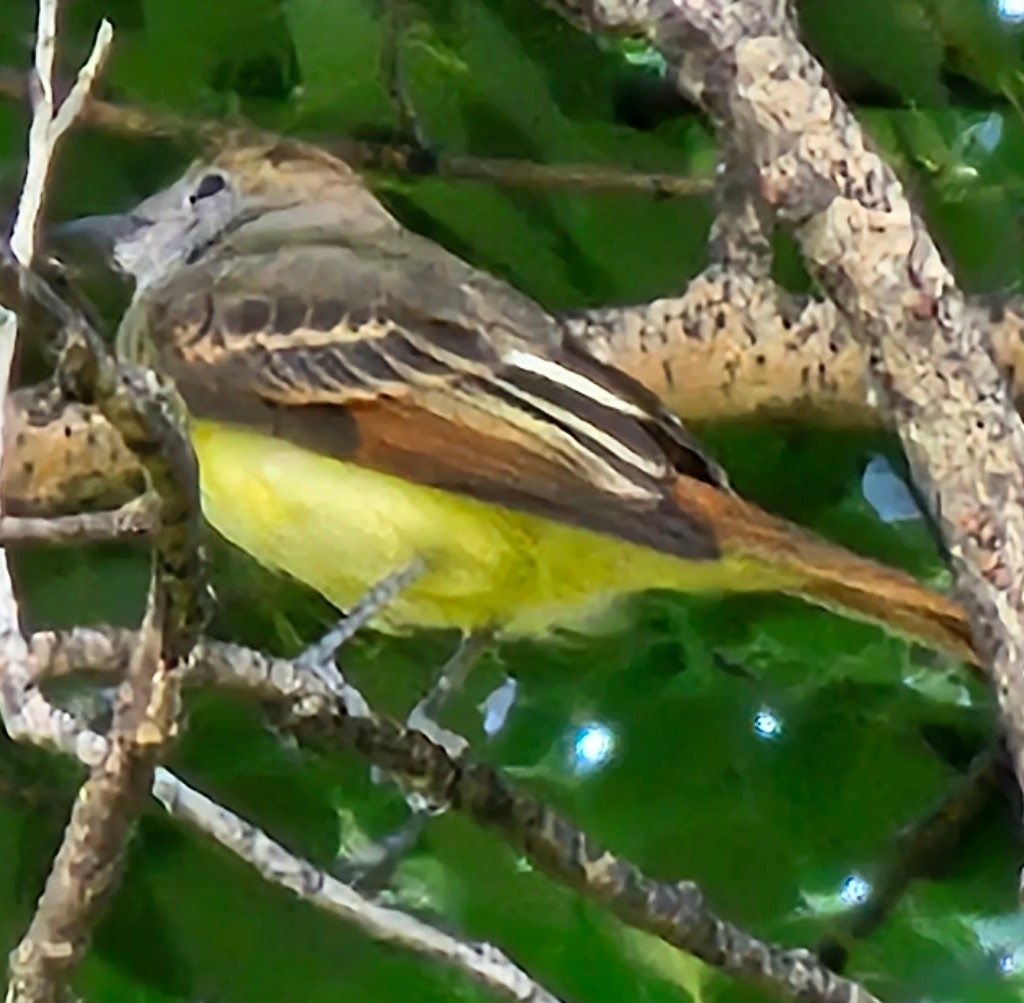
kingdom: Animalia
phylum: Chordata
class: Aves
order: Passeriformes
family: Tyrannidae
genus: Myiarchus
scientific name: Myiarchus crinitus
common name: Great crested flycatcher
